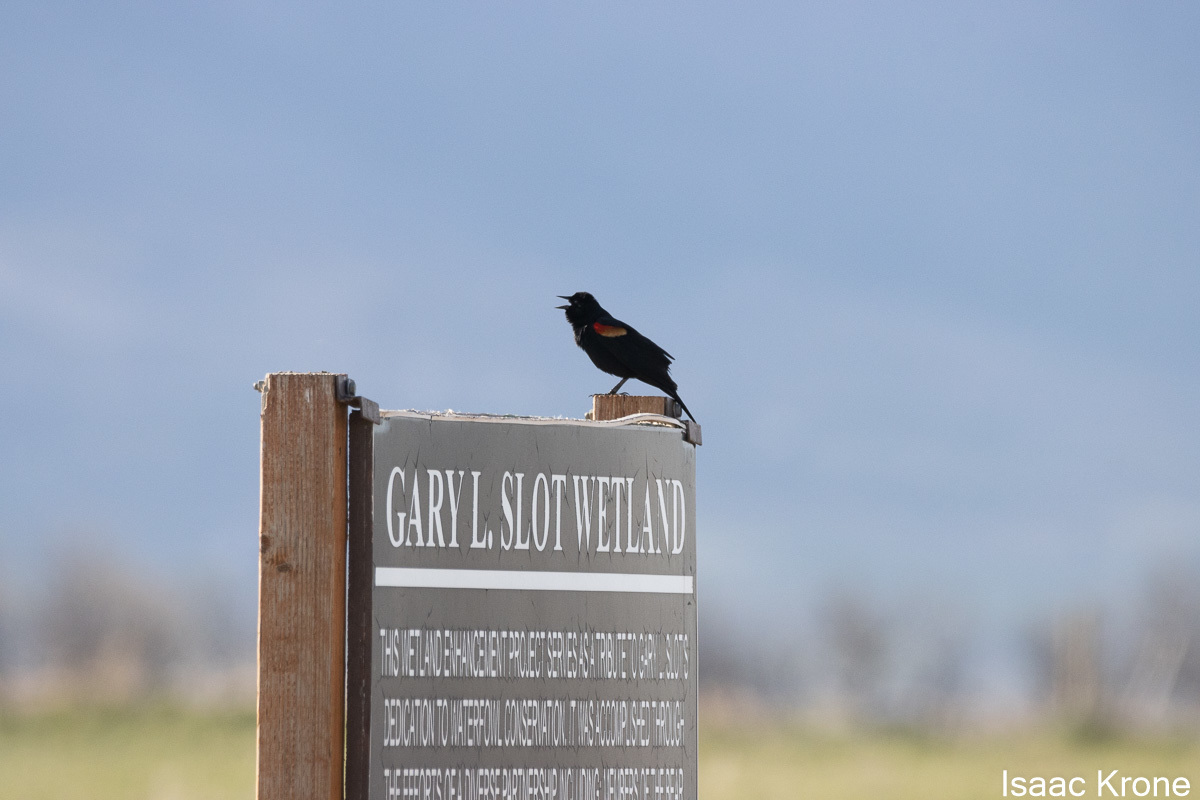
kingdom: Animalia
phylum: Chordata
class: Aves
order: Passeriformes
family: Icteridae
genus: Agelaius
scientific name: Agelaius phoeniceus
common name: Red-winged blackbird
